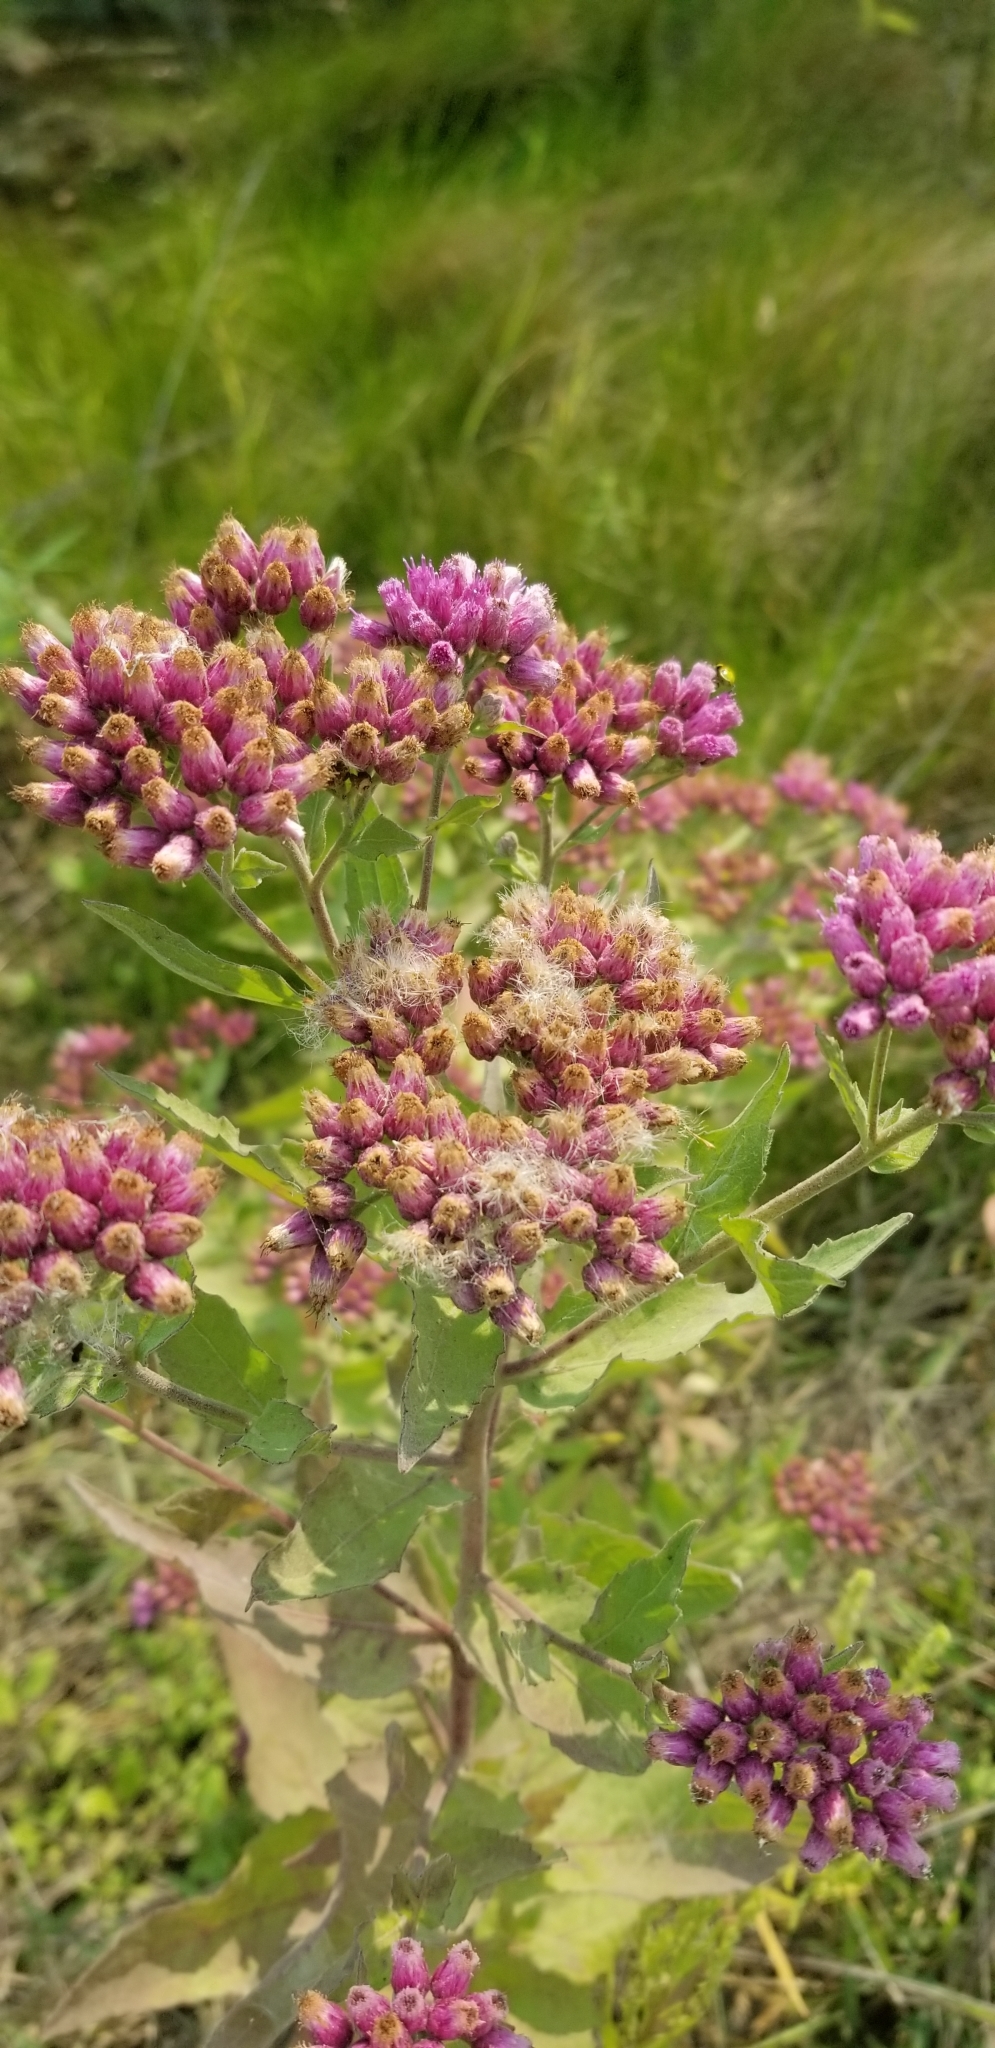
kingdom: Plantae
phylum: Tracheophyta
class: Magnoliopsida
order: Asterales
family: Asteraceae
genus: Pluchea
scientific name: Pluchea odorata
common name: Saltmarsh fleabane
